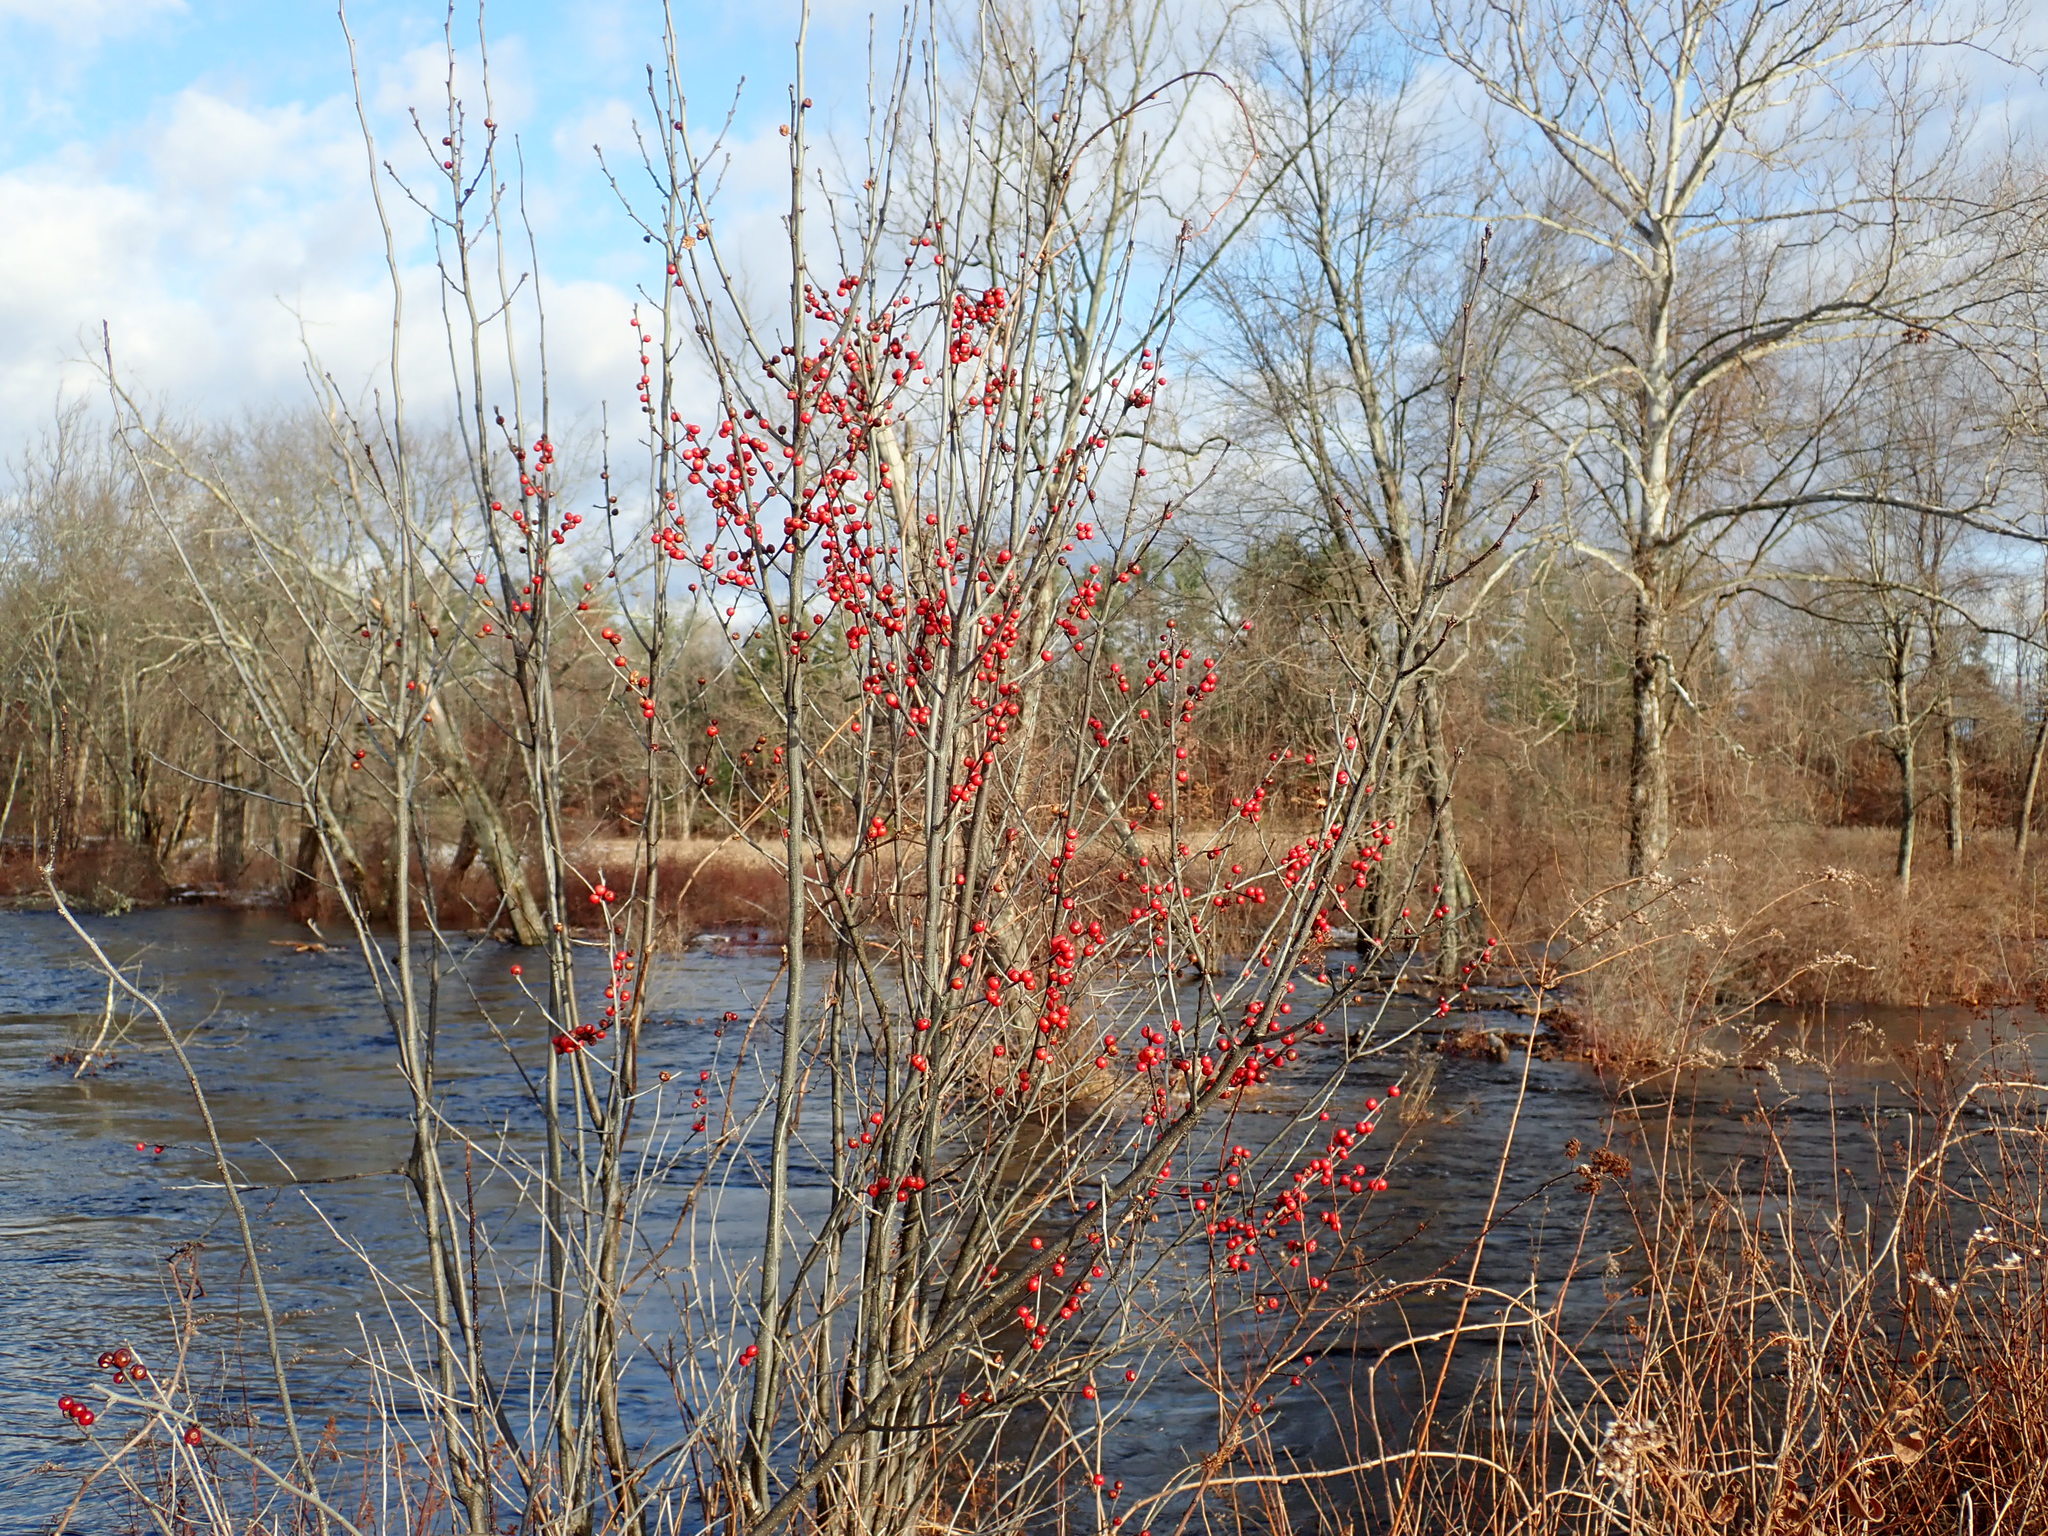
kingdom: Plantae
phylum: Tracheophyta
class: Magnoliopsida
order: Aquifoliales
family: Aquifoliaceae
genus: Ilex
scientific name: Ilex verticillata
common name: Virginia winterberry
